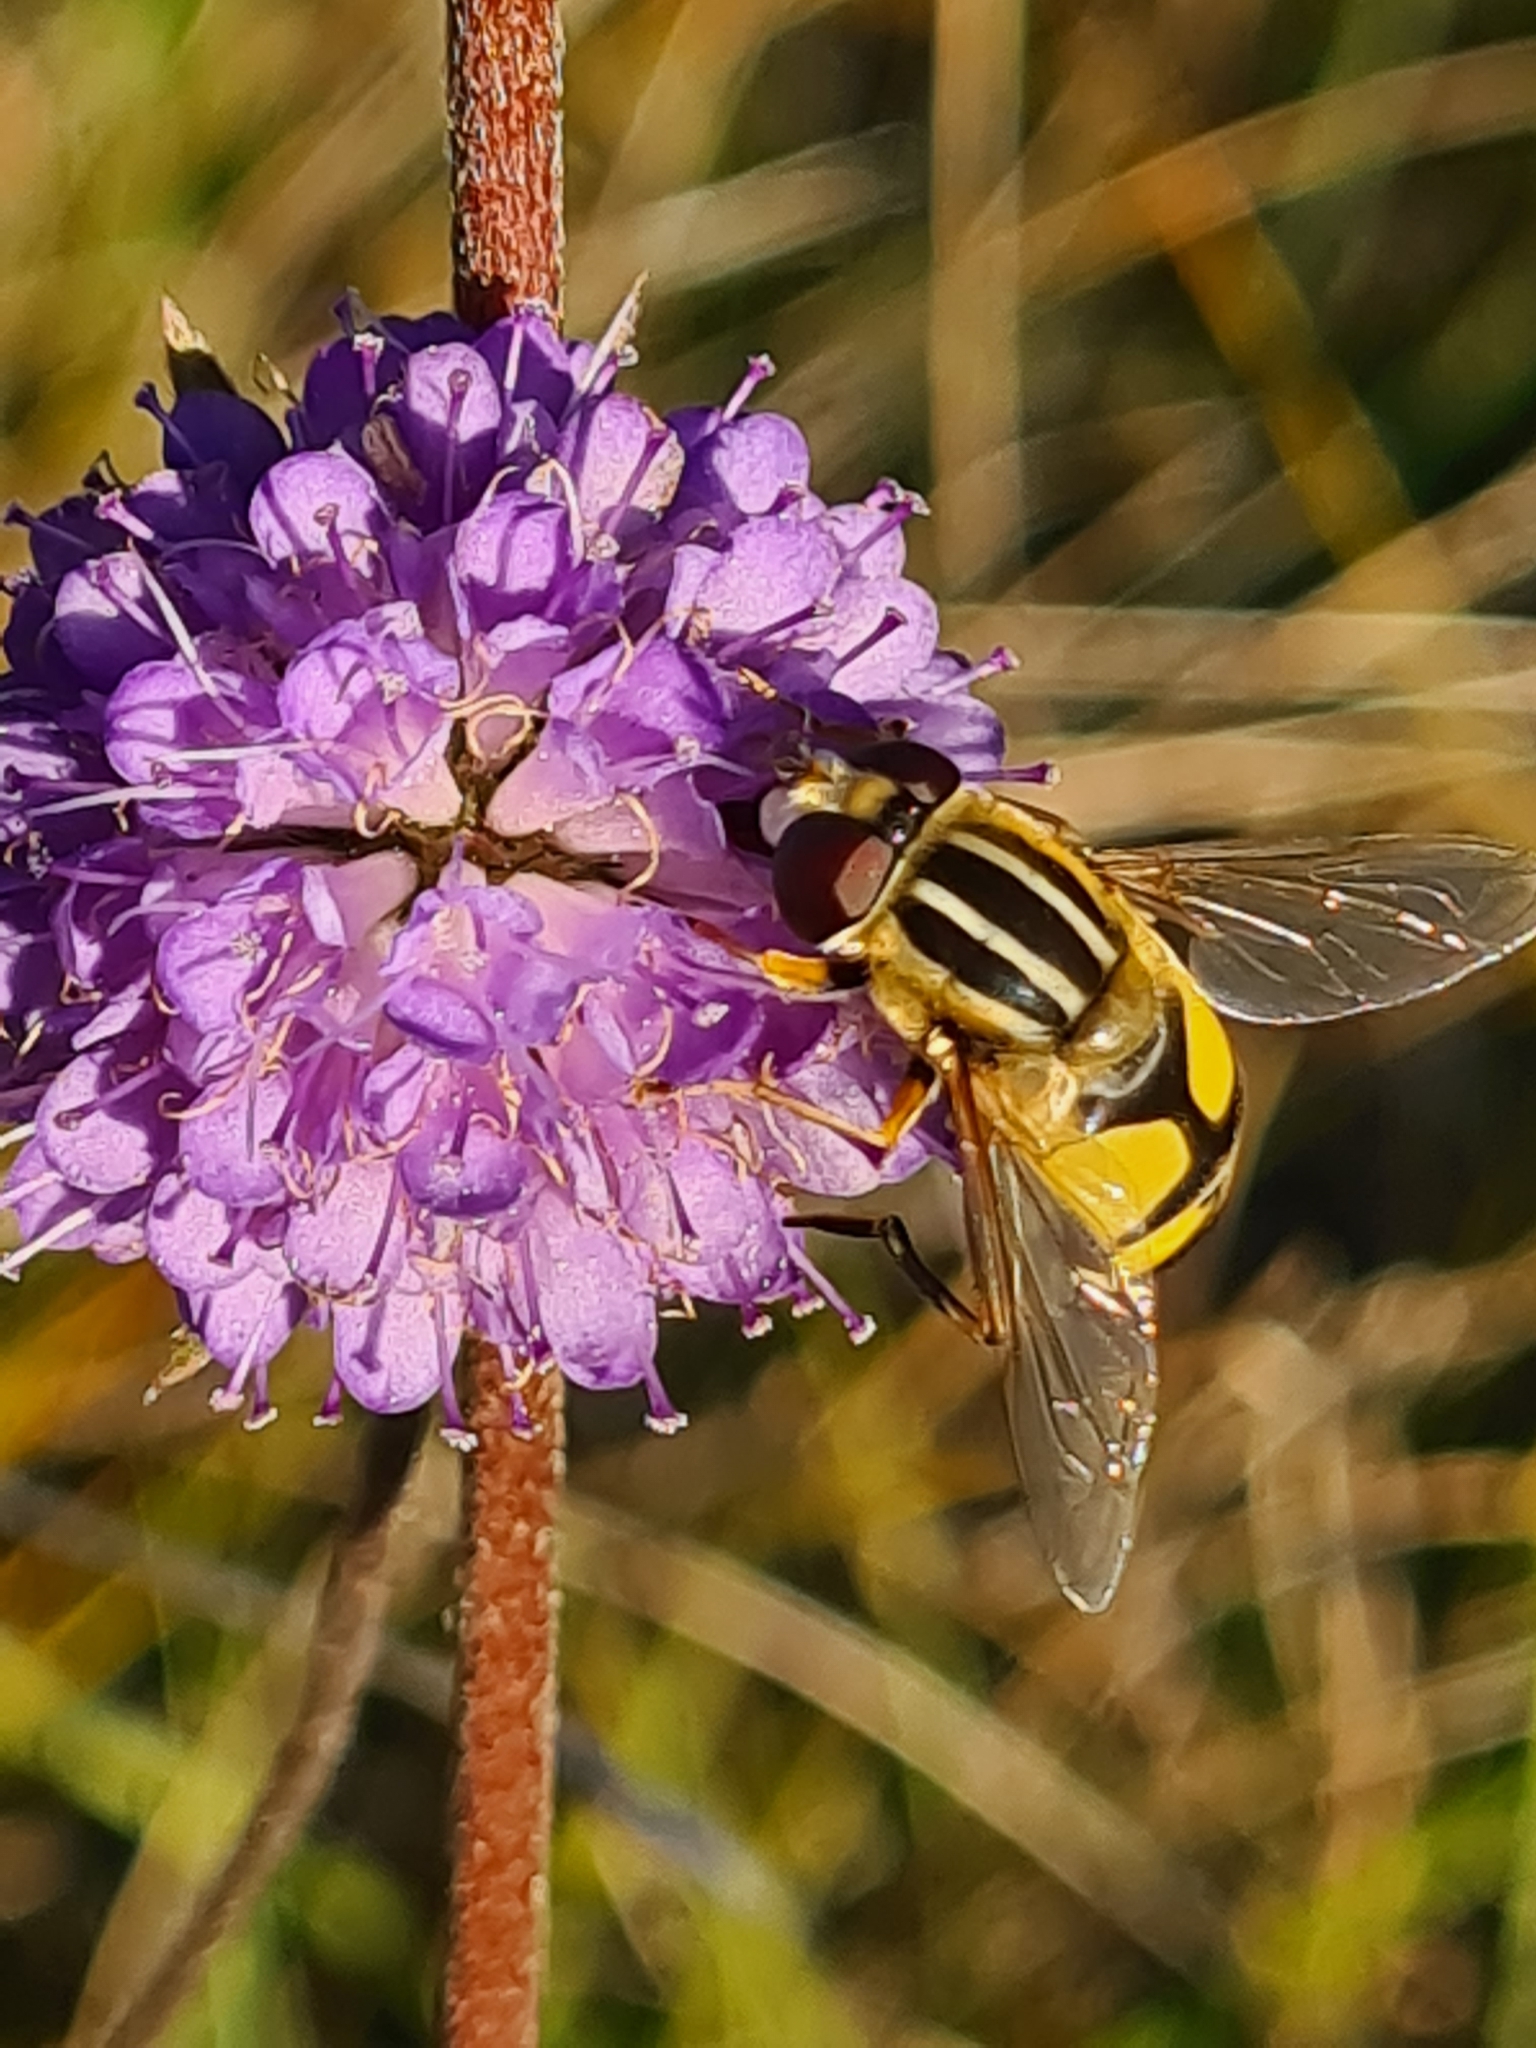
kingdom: Animalia
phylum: Arthropoda
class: Insecta
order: Diptera
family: Syrphidae
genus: Helophilus
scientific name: Helophilus trivittatus
